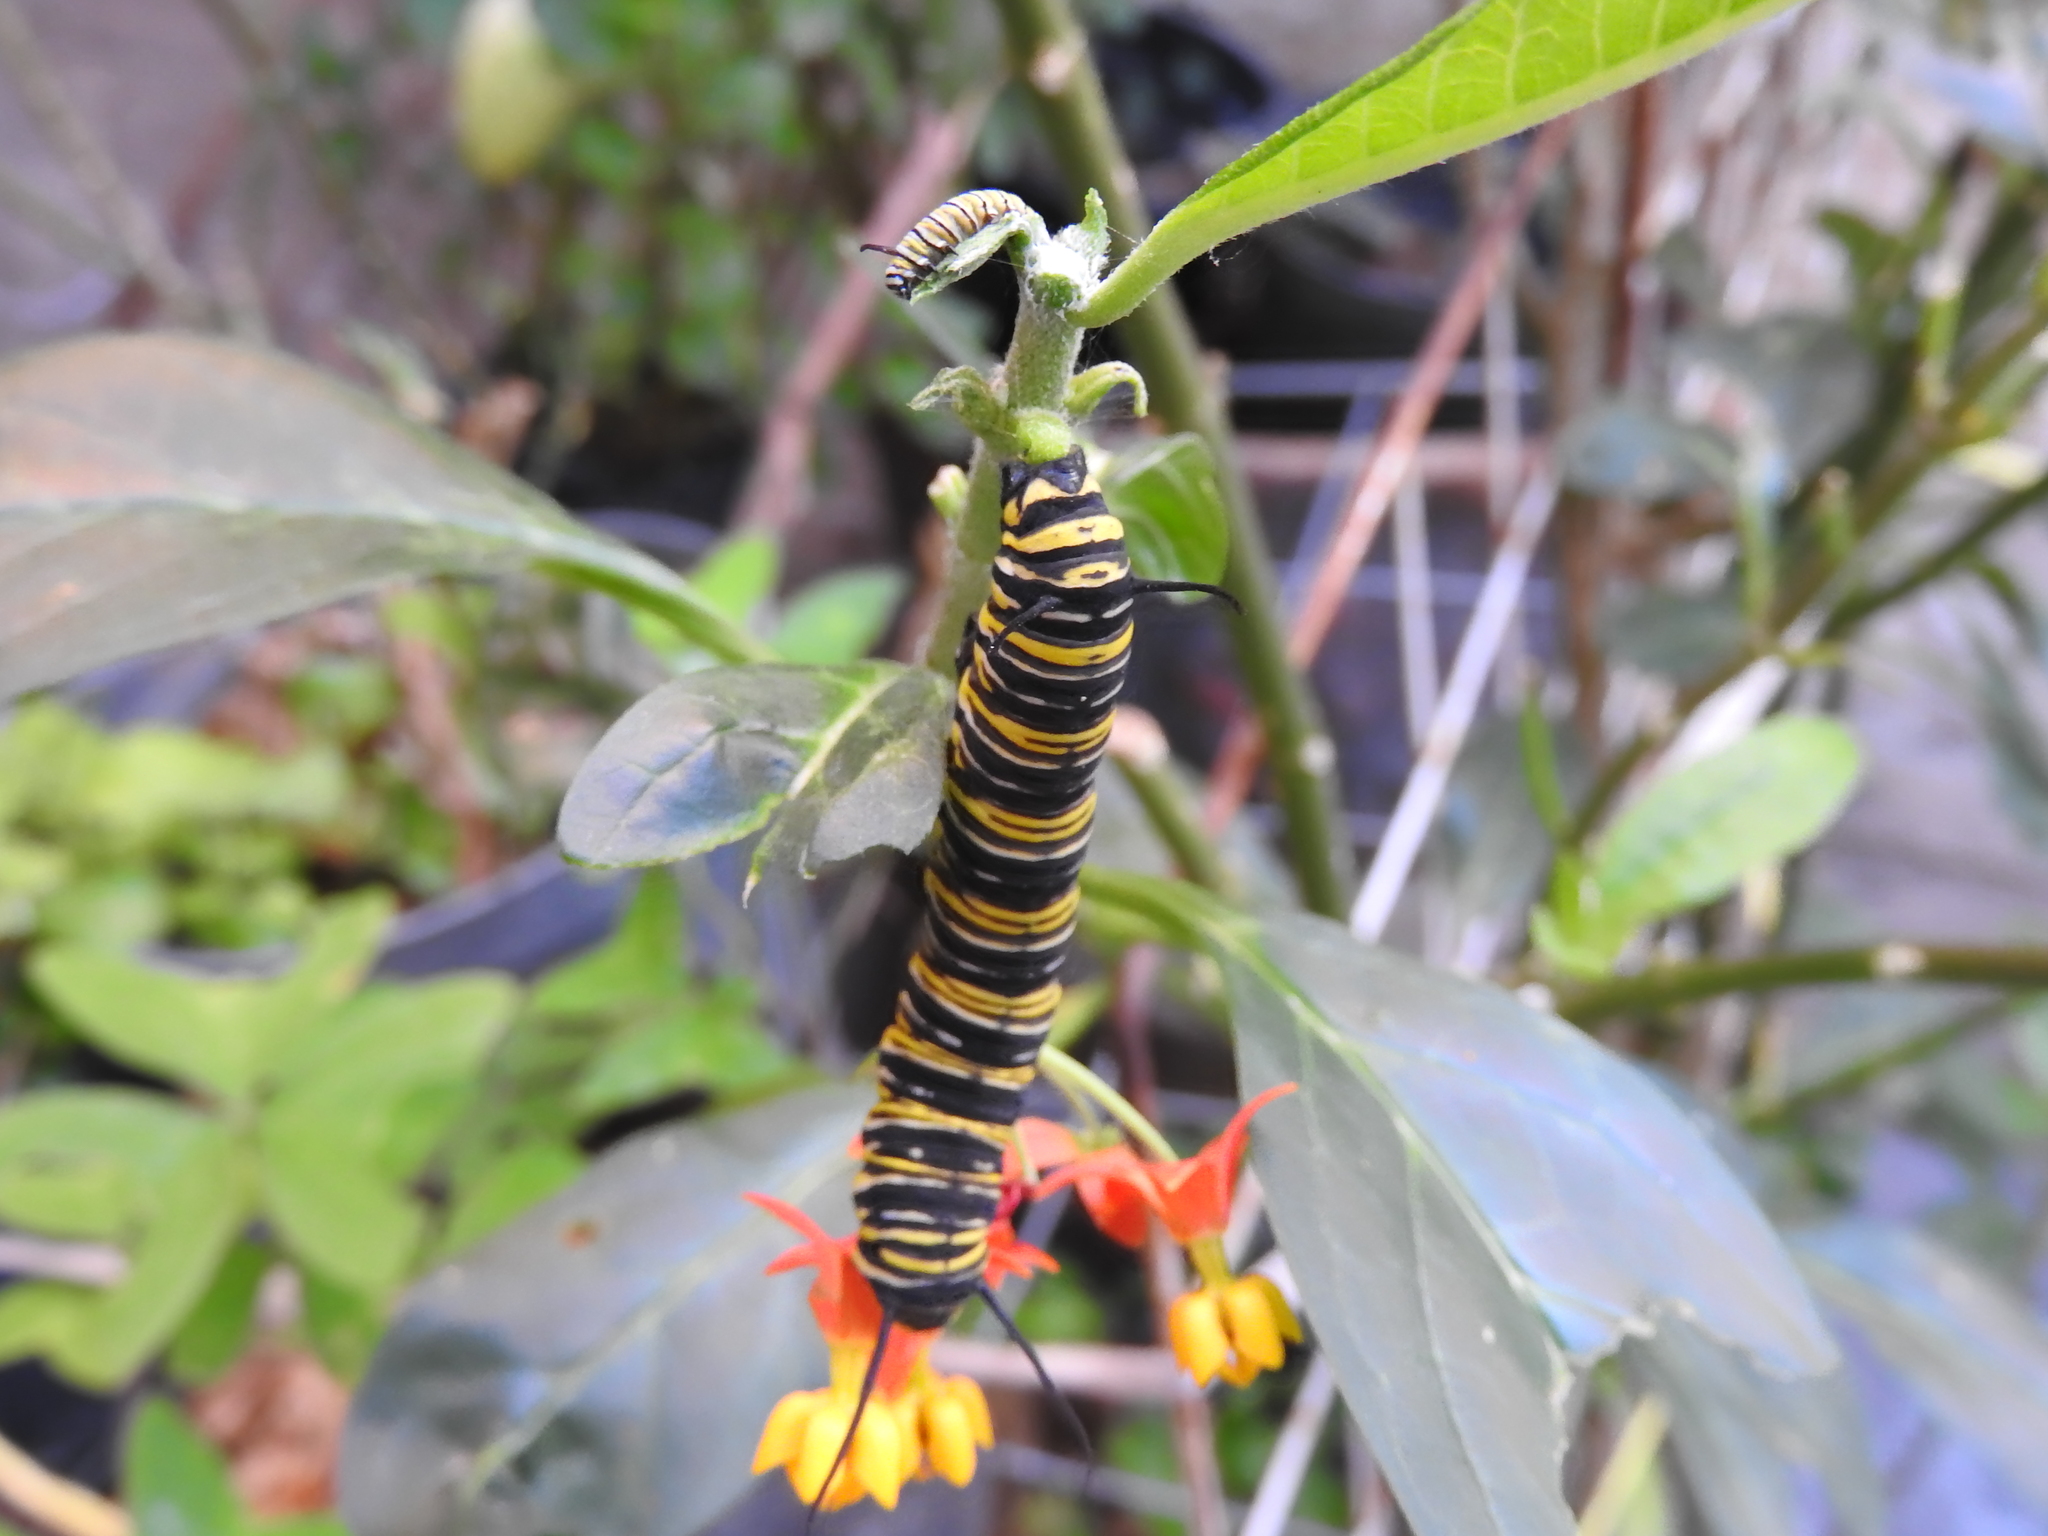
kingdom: Animalia
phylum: Arthropoda
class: Insecta
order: Lepidoptera
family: Nymphalidae
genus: Danaus
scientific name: Danaus plexippus
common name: Monarch
